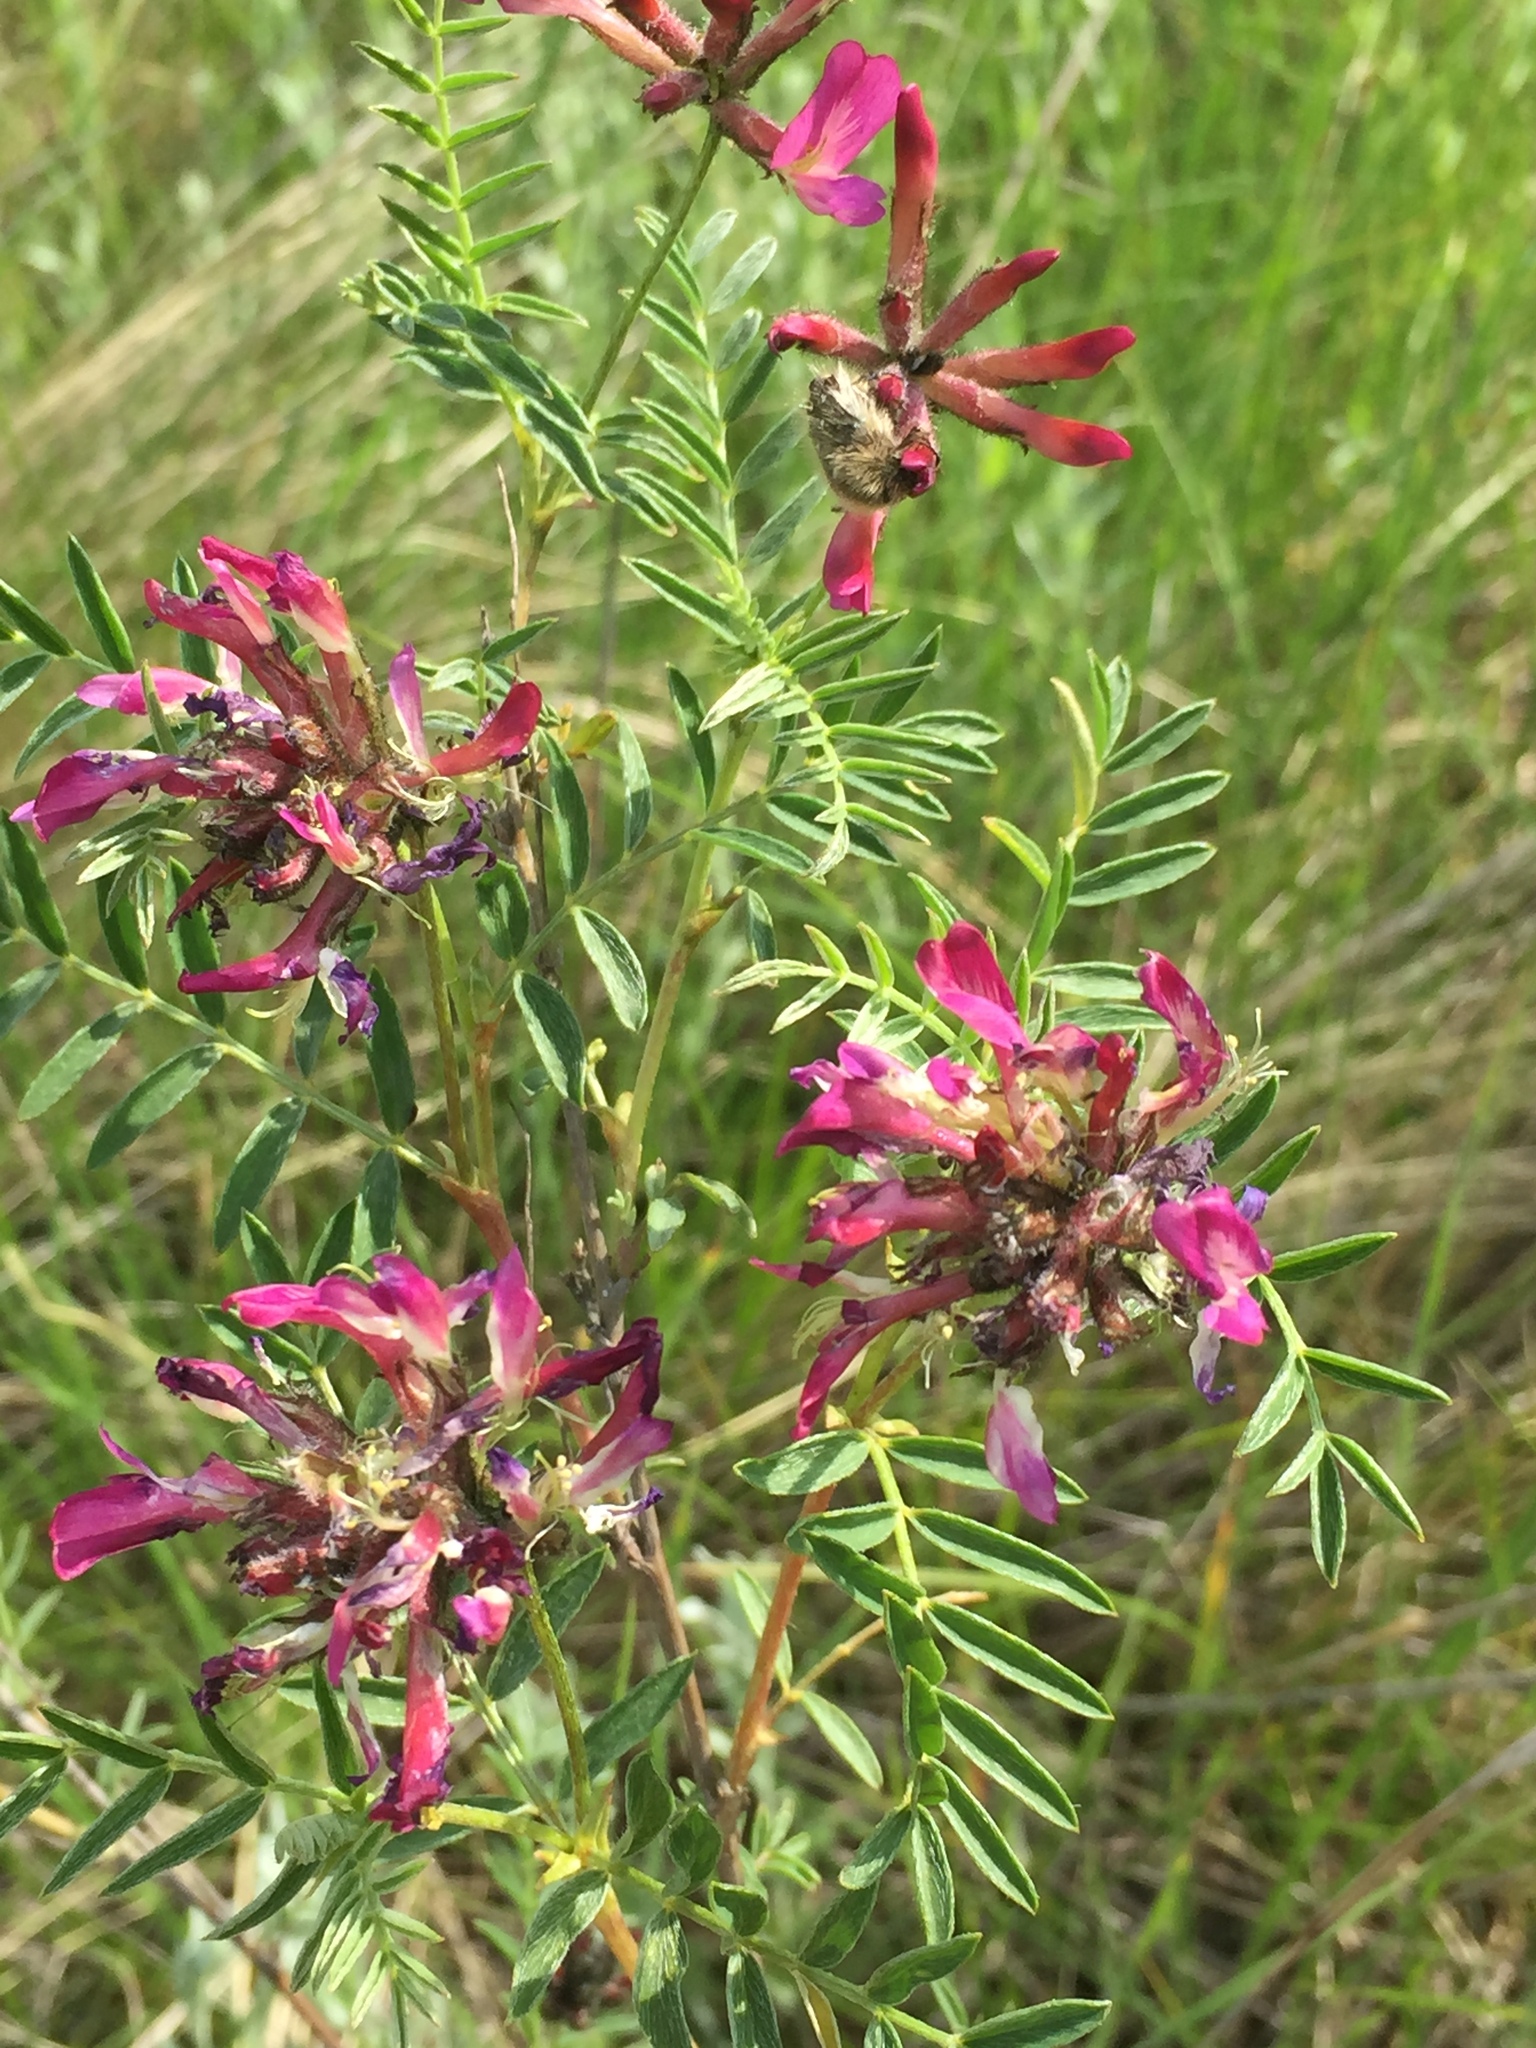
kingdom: Plantae
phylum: Tracheophyta
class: Magnoliopsida
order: Fabales
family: Fabaceae
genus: Astragalus
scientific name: Astragalus cornutus
